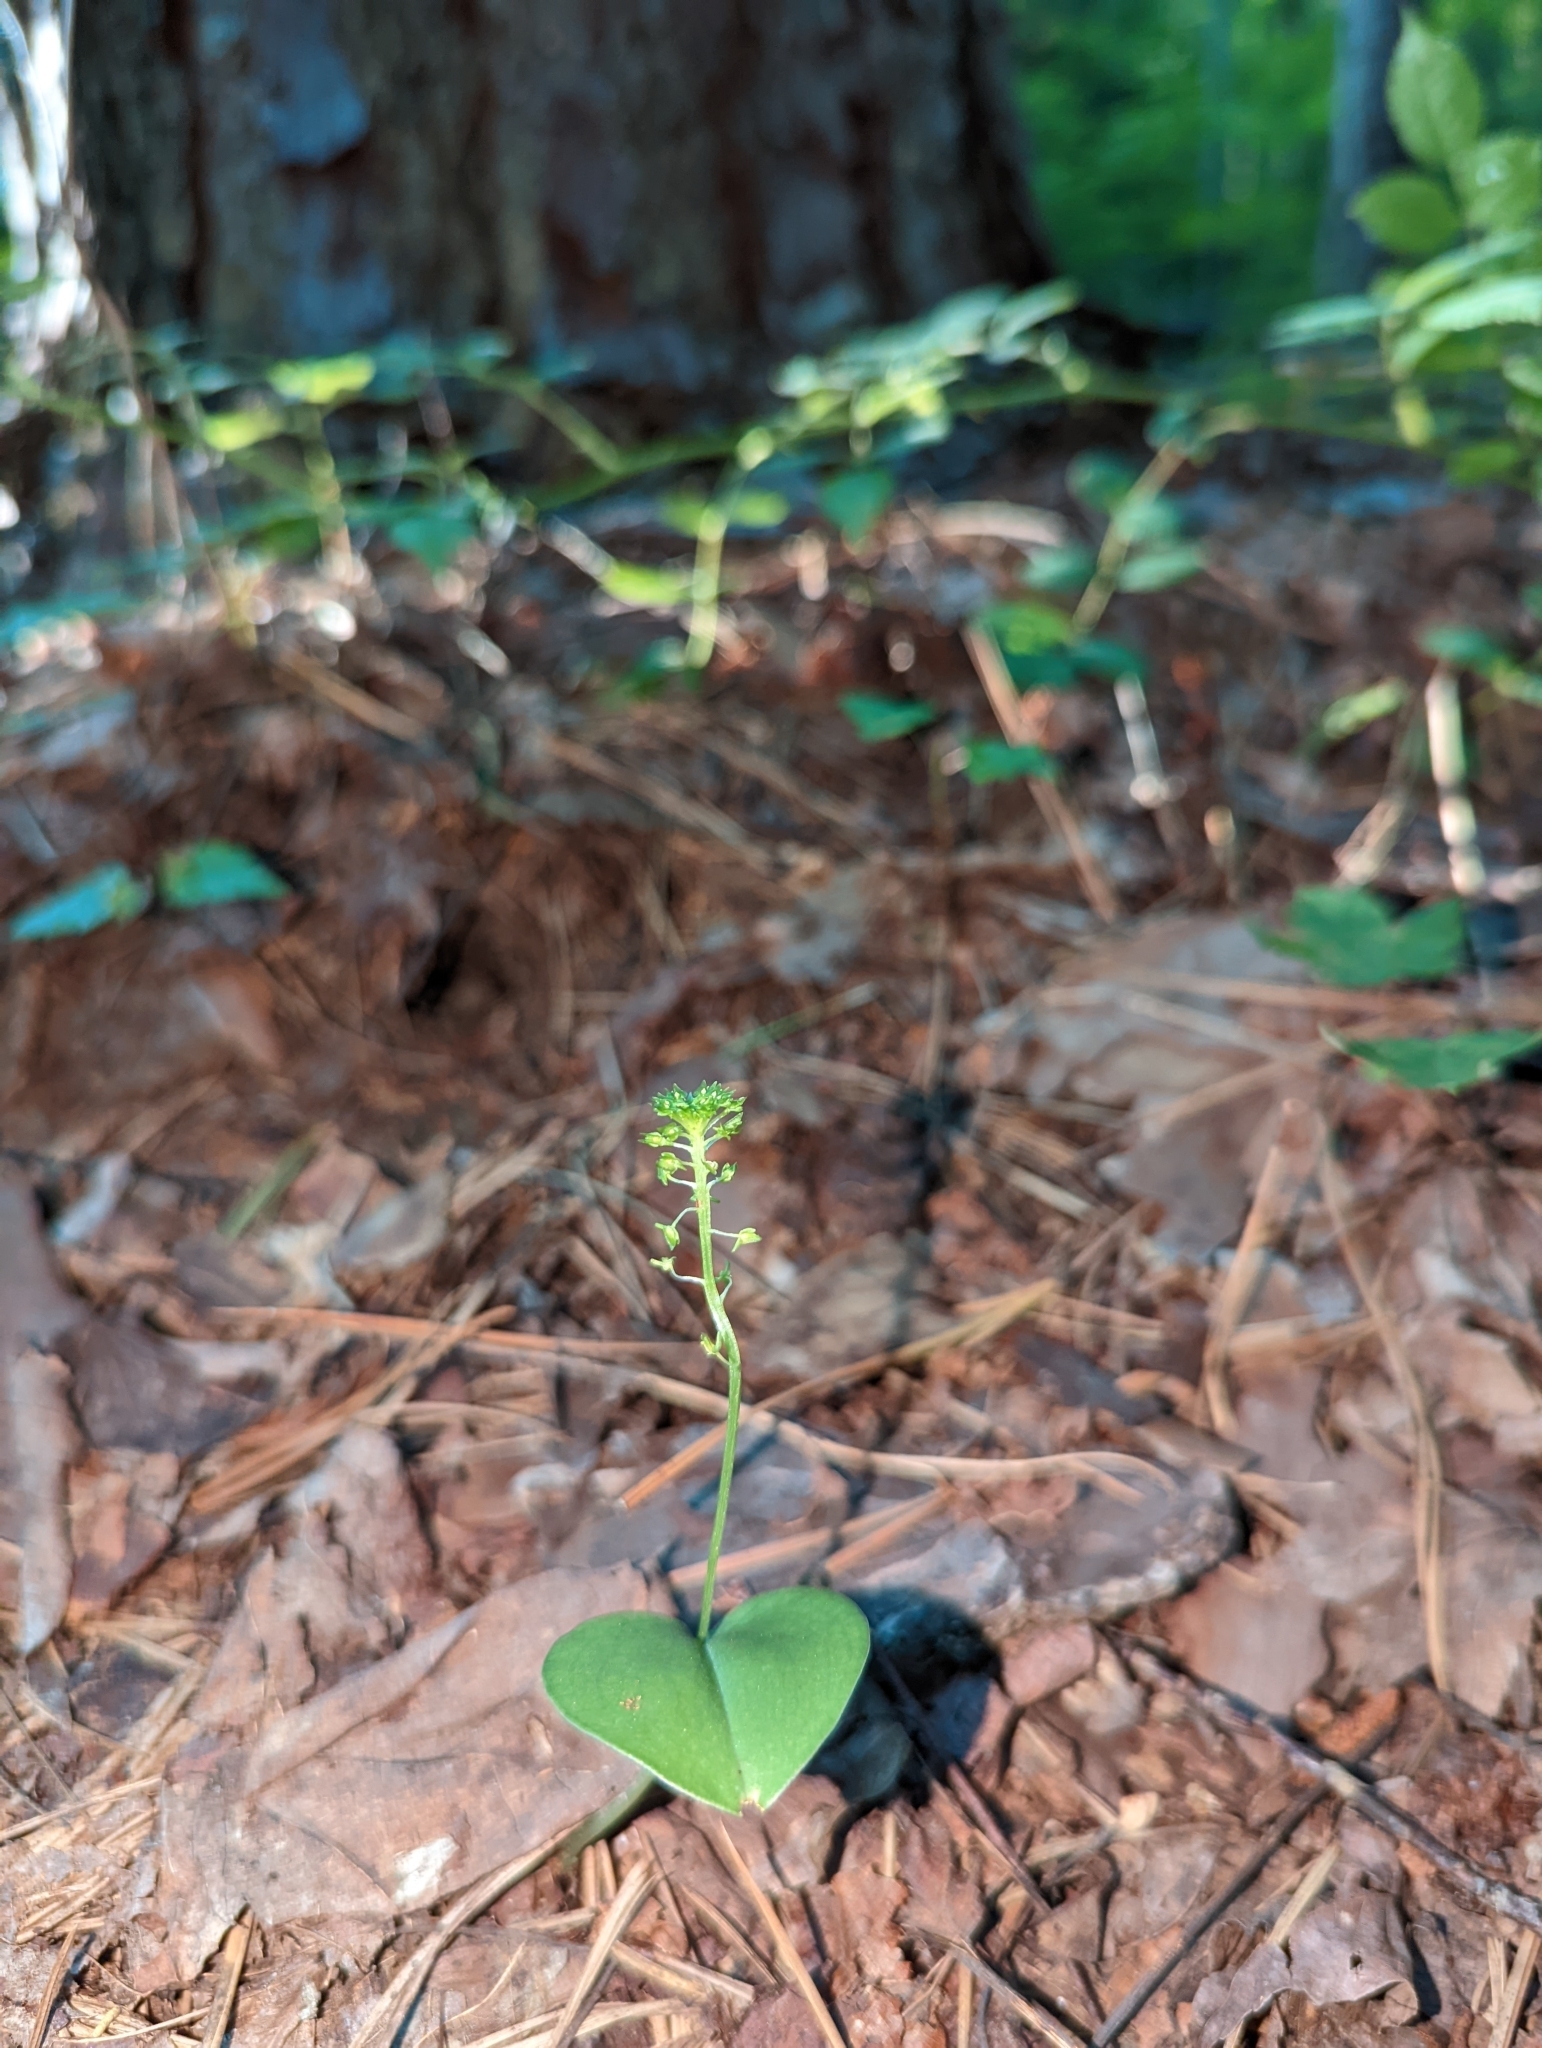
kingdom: Plantae
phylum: Tracheophyta
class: Liliopsida
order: Asparagales
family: Orchidaceae
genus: Malaxis
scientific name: Malaxis unifolia
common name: Green adder's-mouth
